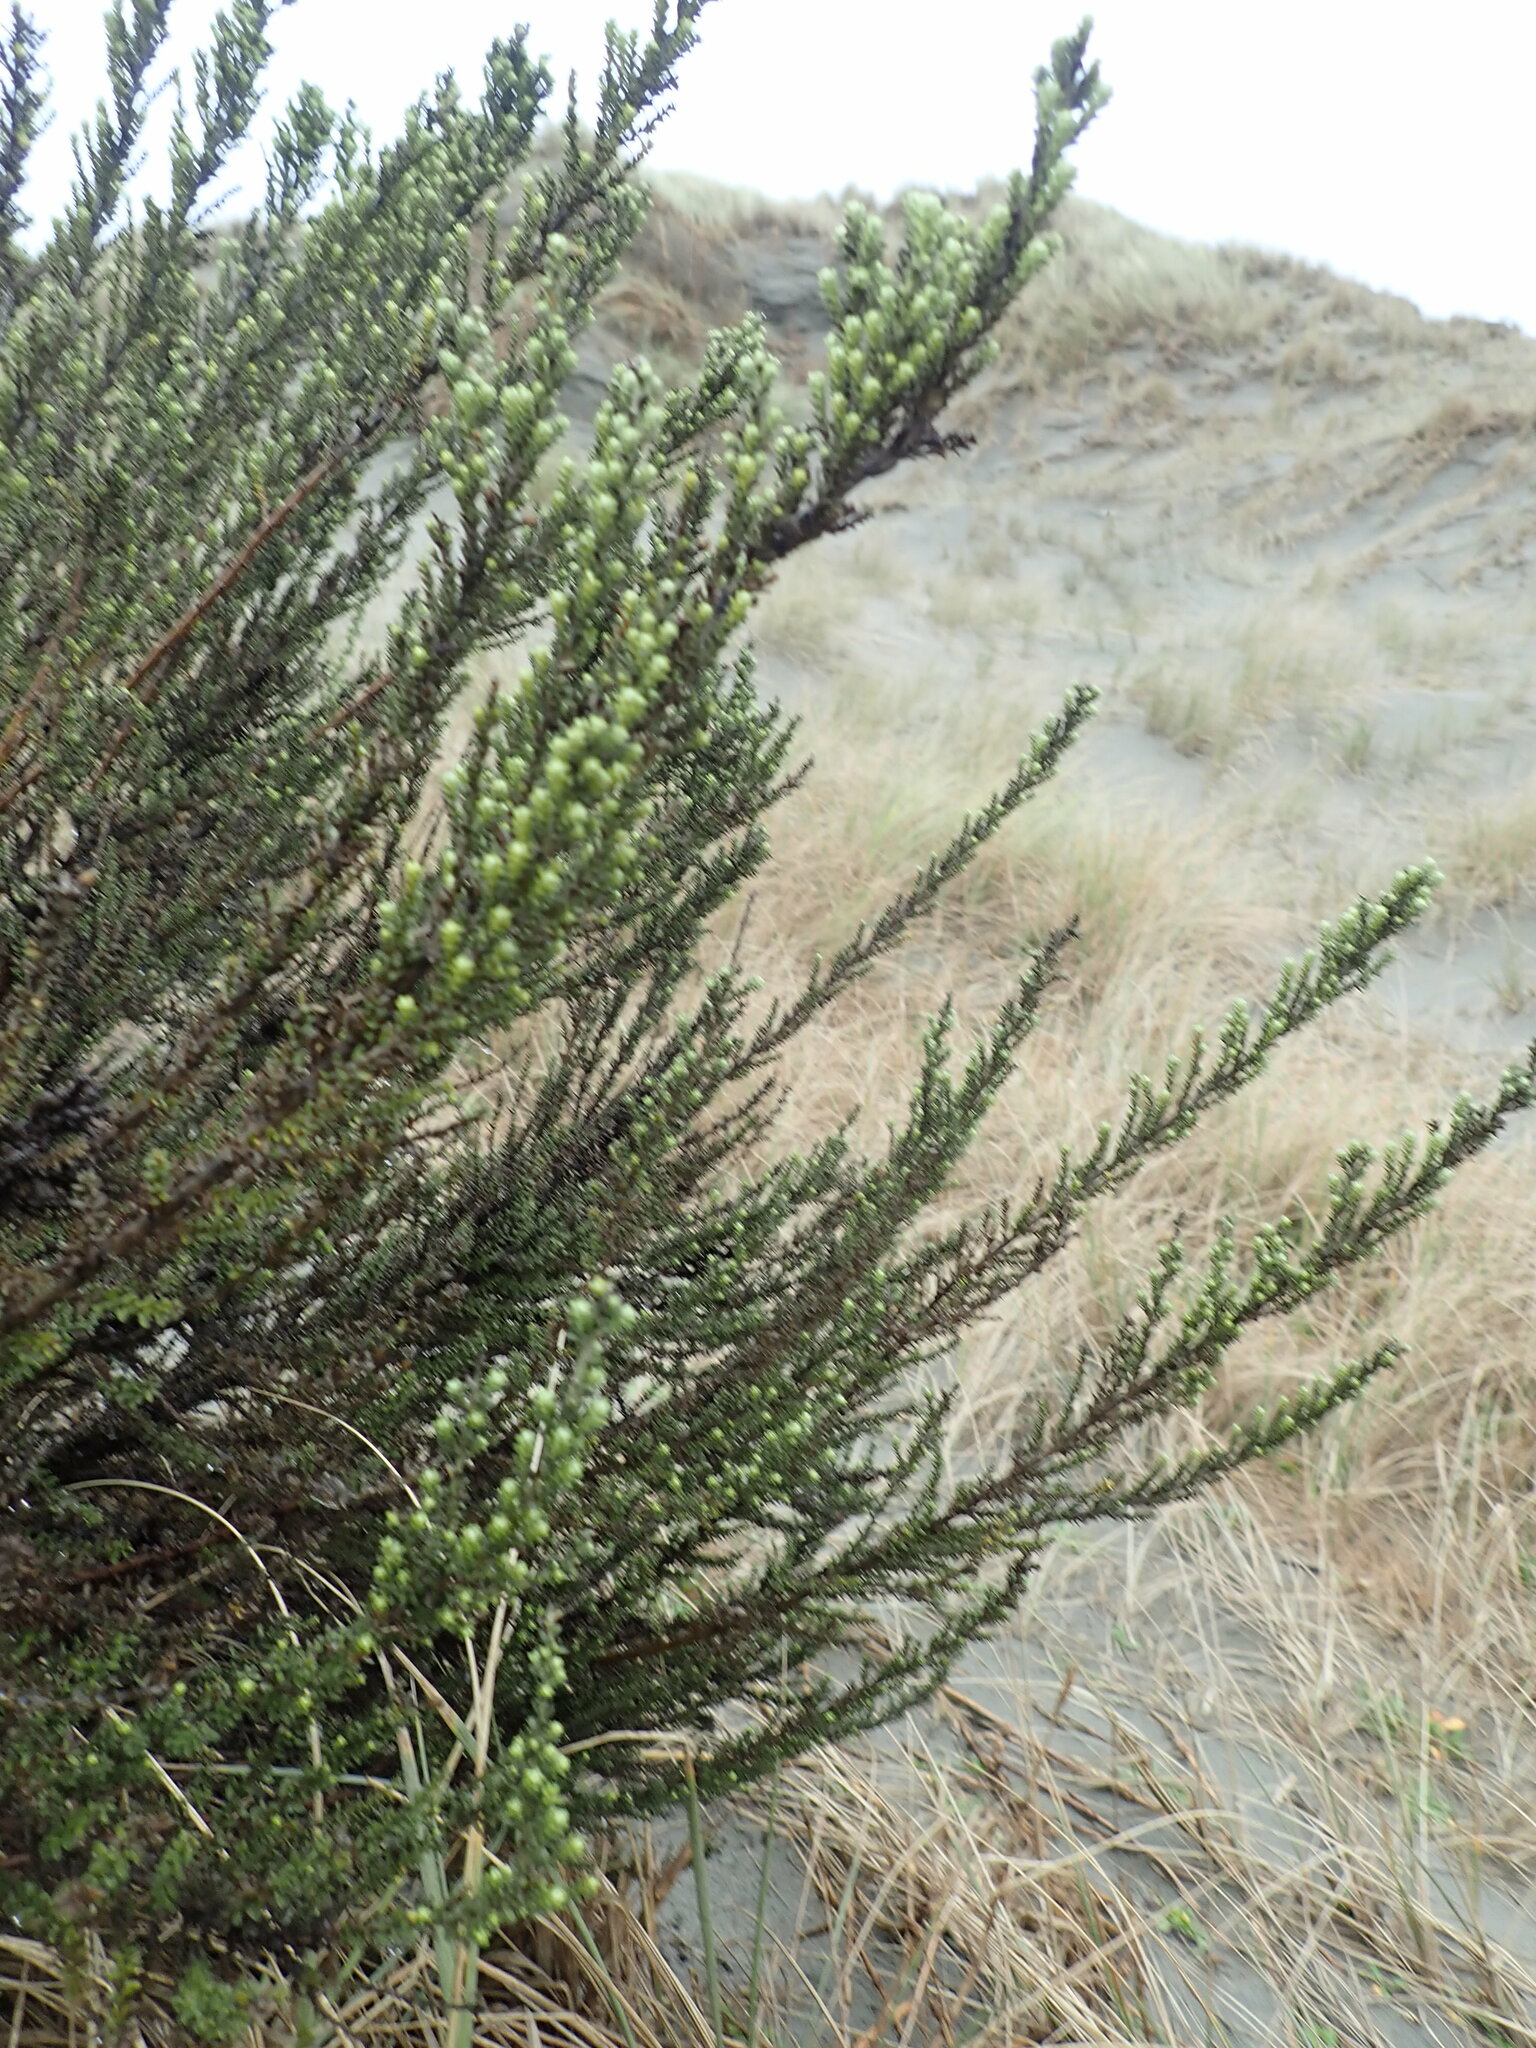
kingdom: Plantae
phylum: Tracheophyta
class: Magnoliopsida
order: Asterales
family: Asteraceae
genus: Ozothamnus
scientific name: Ozothamnus leptophyllus
